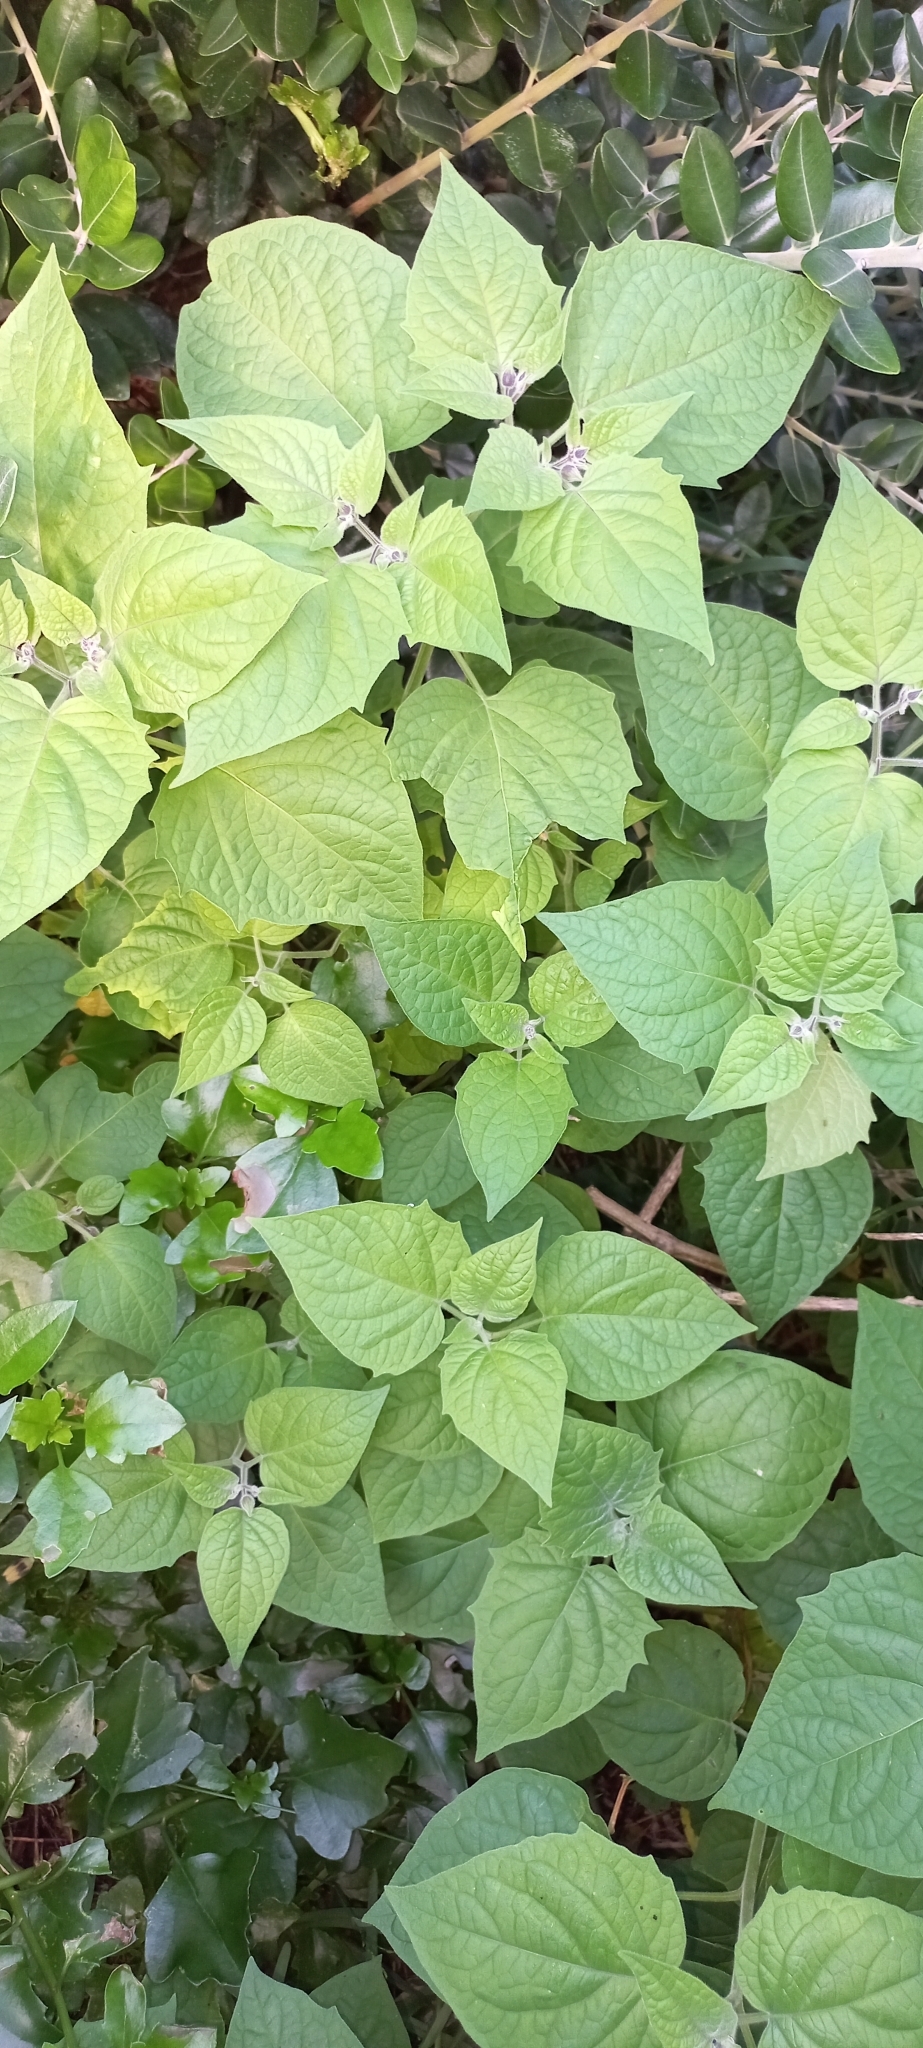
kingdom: Plantae
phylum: Tracheophyta
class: Magnoliopsida
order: Solanales
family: Solanaceae
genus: Physalis
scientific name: Physalis peruviana
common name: Cape-gooseberry
